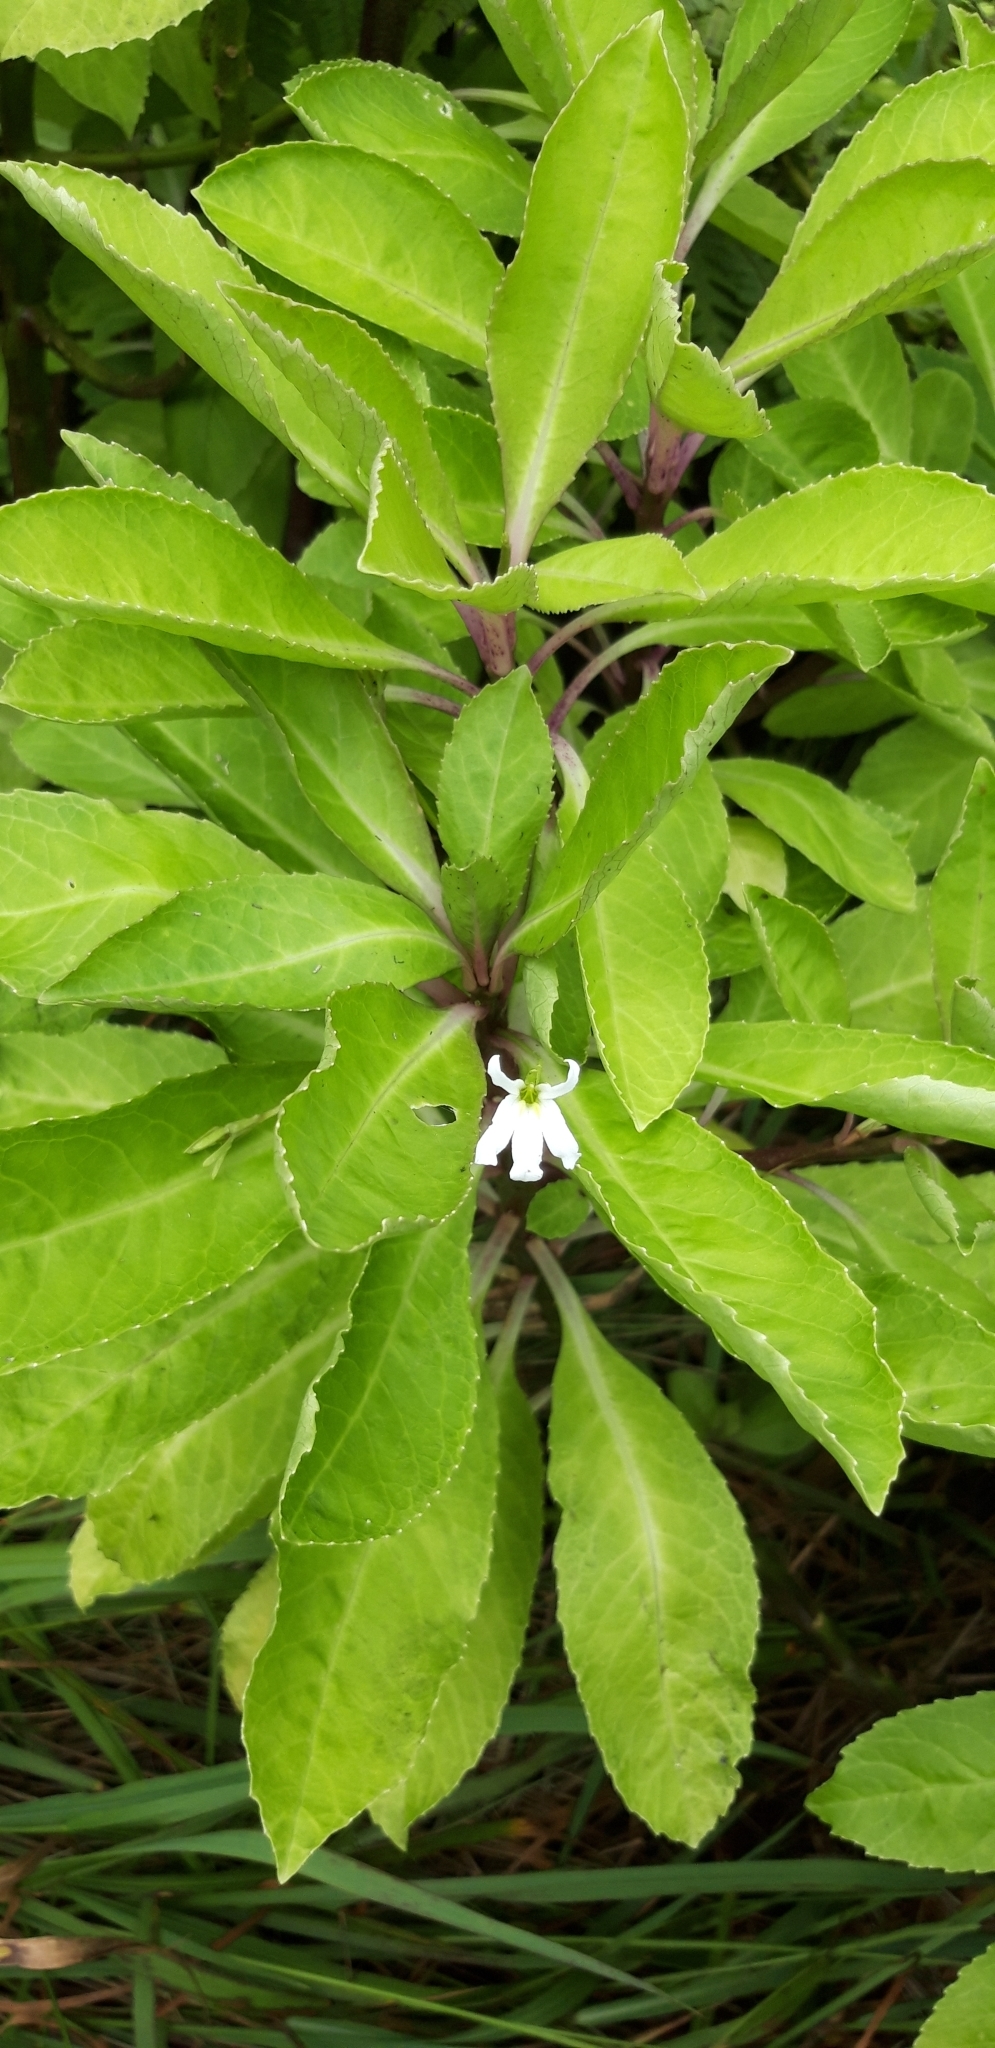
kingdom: Plantae
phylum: Tracheophyta
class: Magnoliopsida
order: Asterales
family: Campanulaceae
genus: Lobelia
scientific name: Lobelia scaevolifolia
